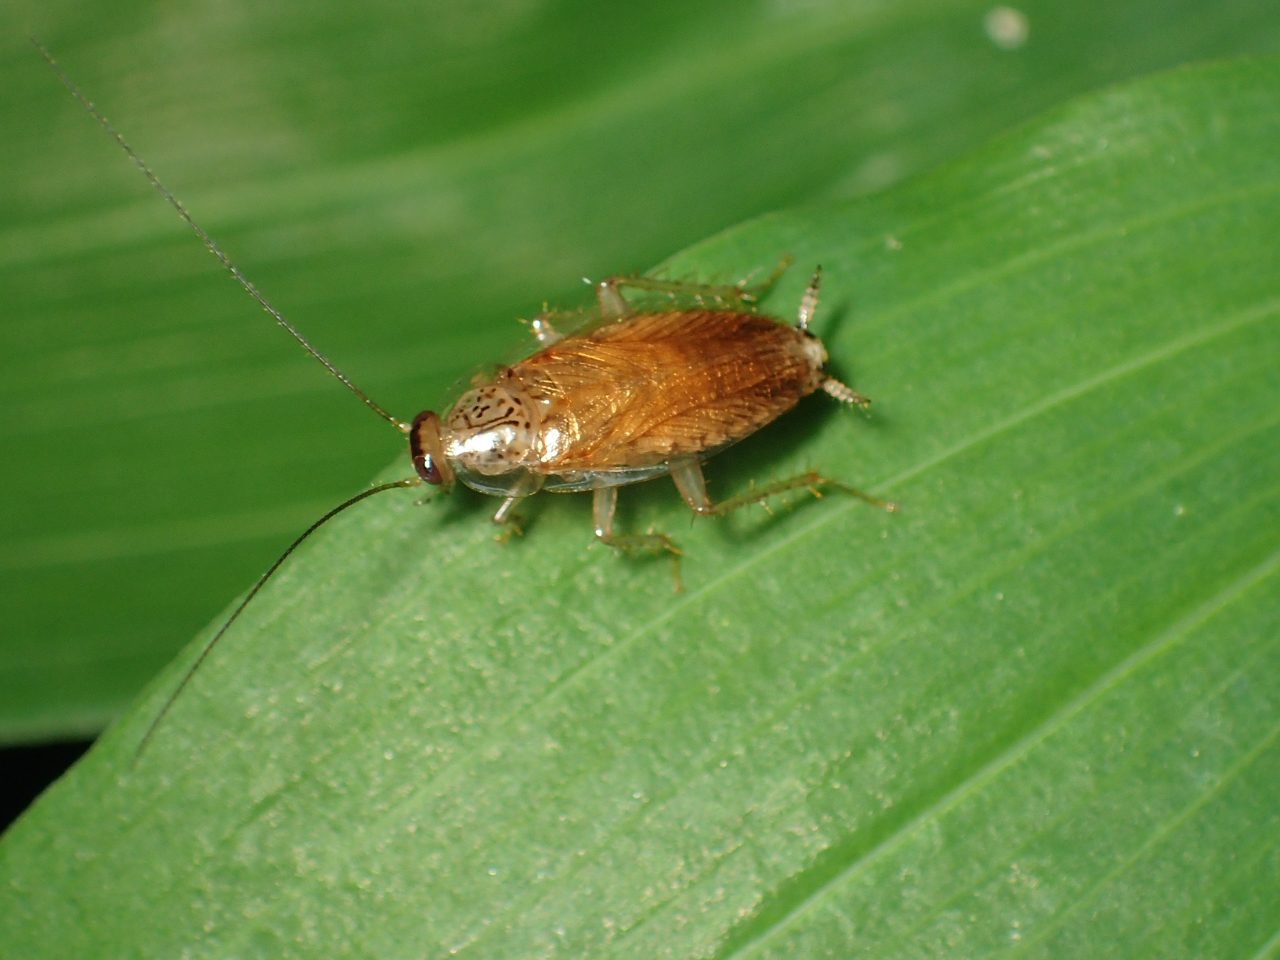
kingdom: Animalia
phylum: Arthropoda
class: Insecta
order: Blattodea
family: Ectobiidae
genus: Cariblatta
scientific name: Cariblatta lutea
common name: Small yellow cockroach
